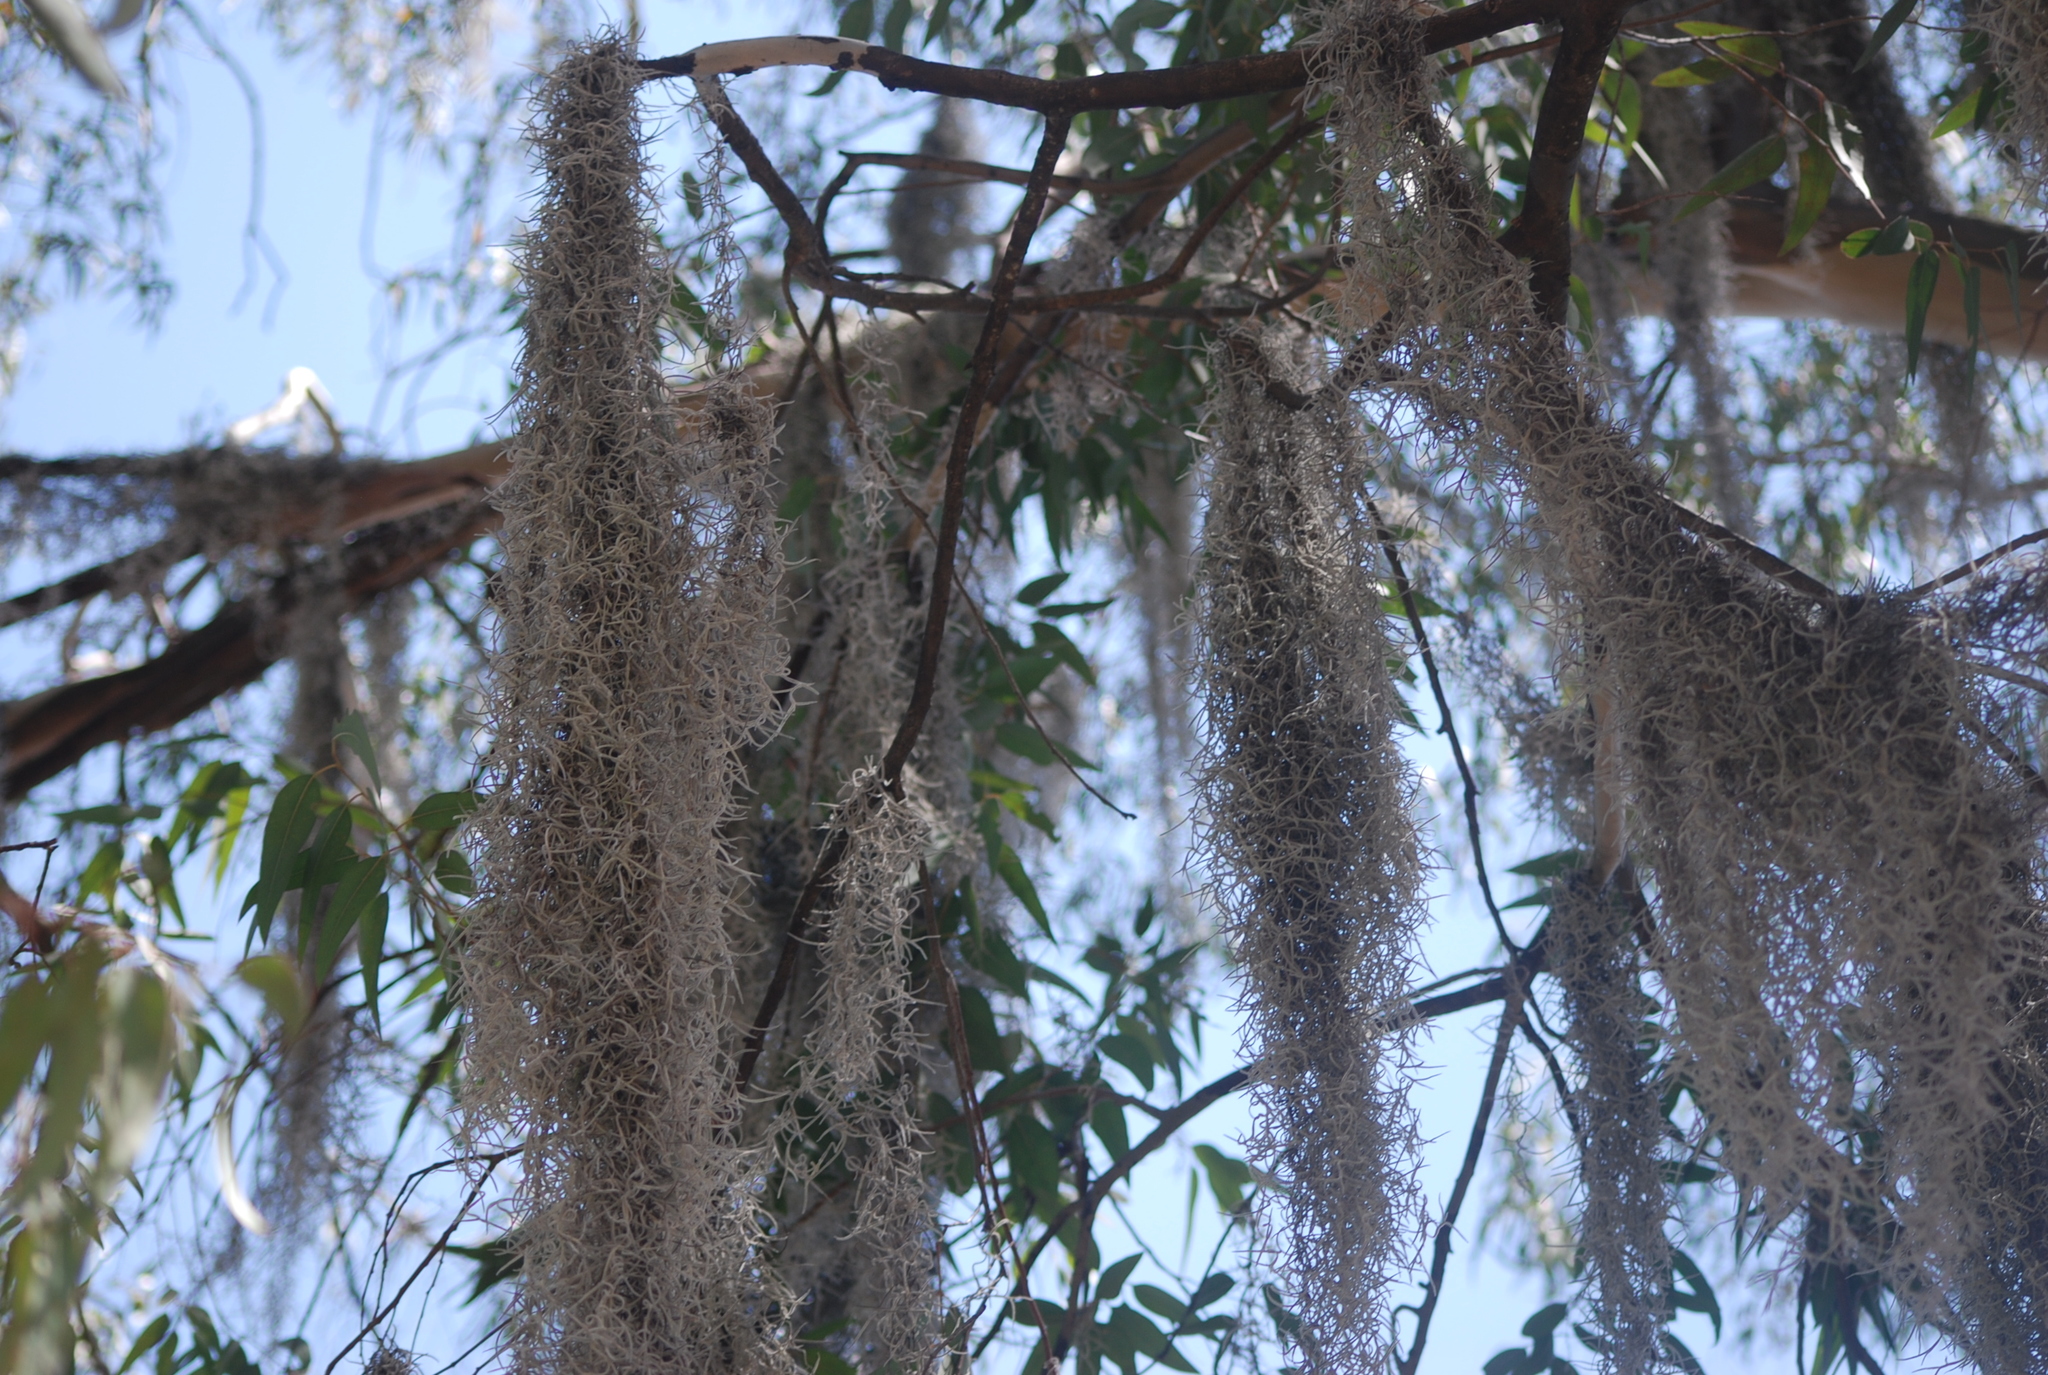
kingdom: Plantae
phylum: Tracheophyta
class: Liliopsida
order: Poales
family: Bromeliaceae
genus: Tillandsia
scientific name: Tillandsia usneoides
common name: Spanish moss
